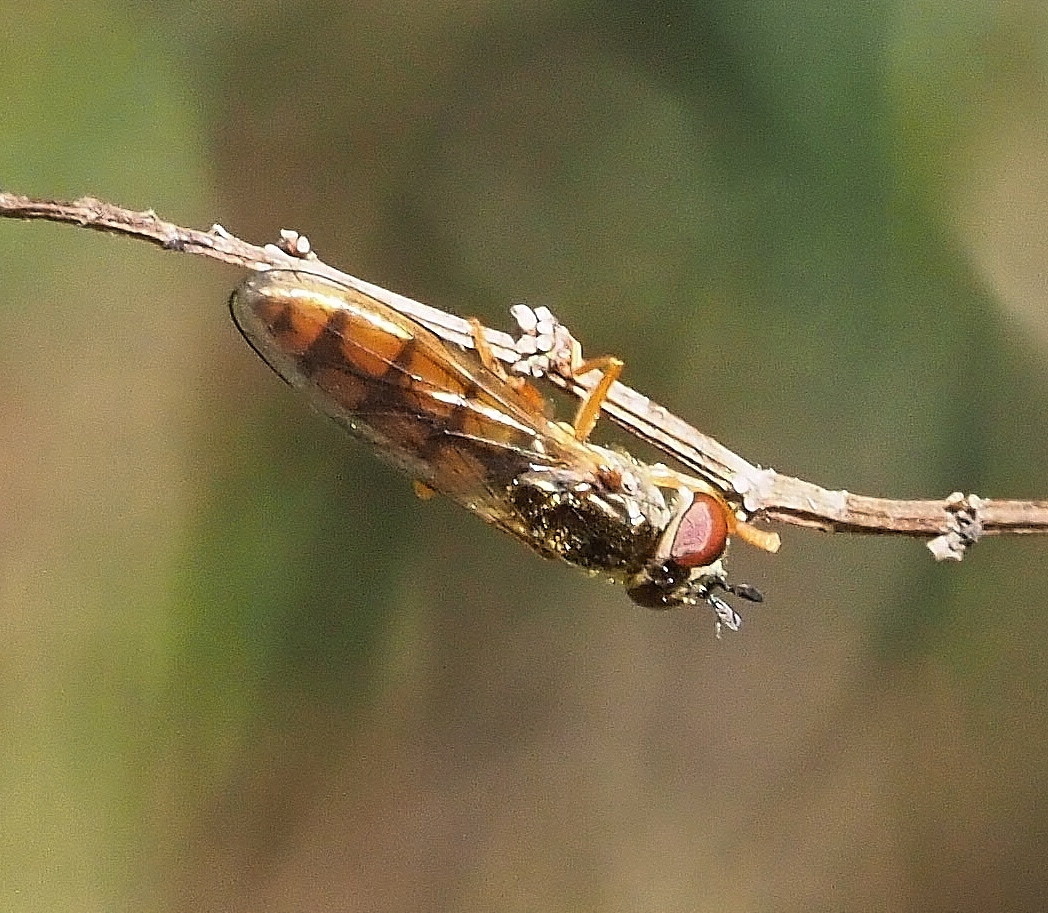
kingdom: Animalia
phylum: Arthropoda
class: Insecta
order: Diptera
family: Syrphidae
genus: Platycheirus
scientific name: Platycheirus
